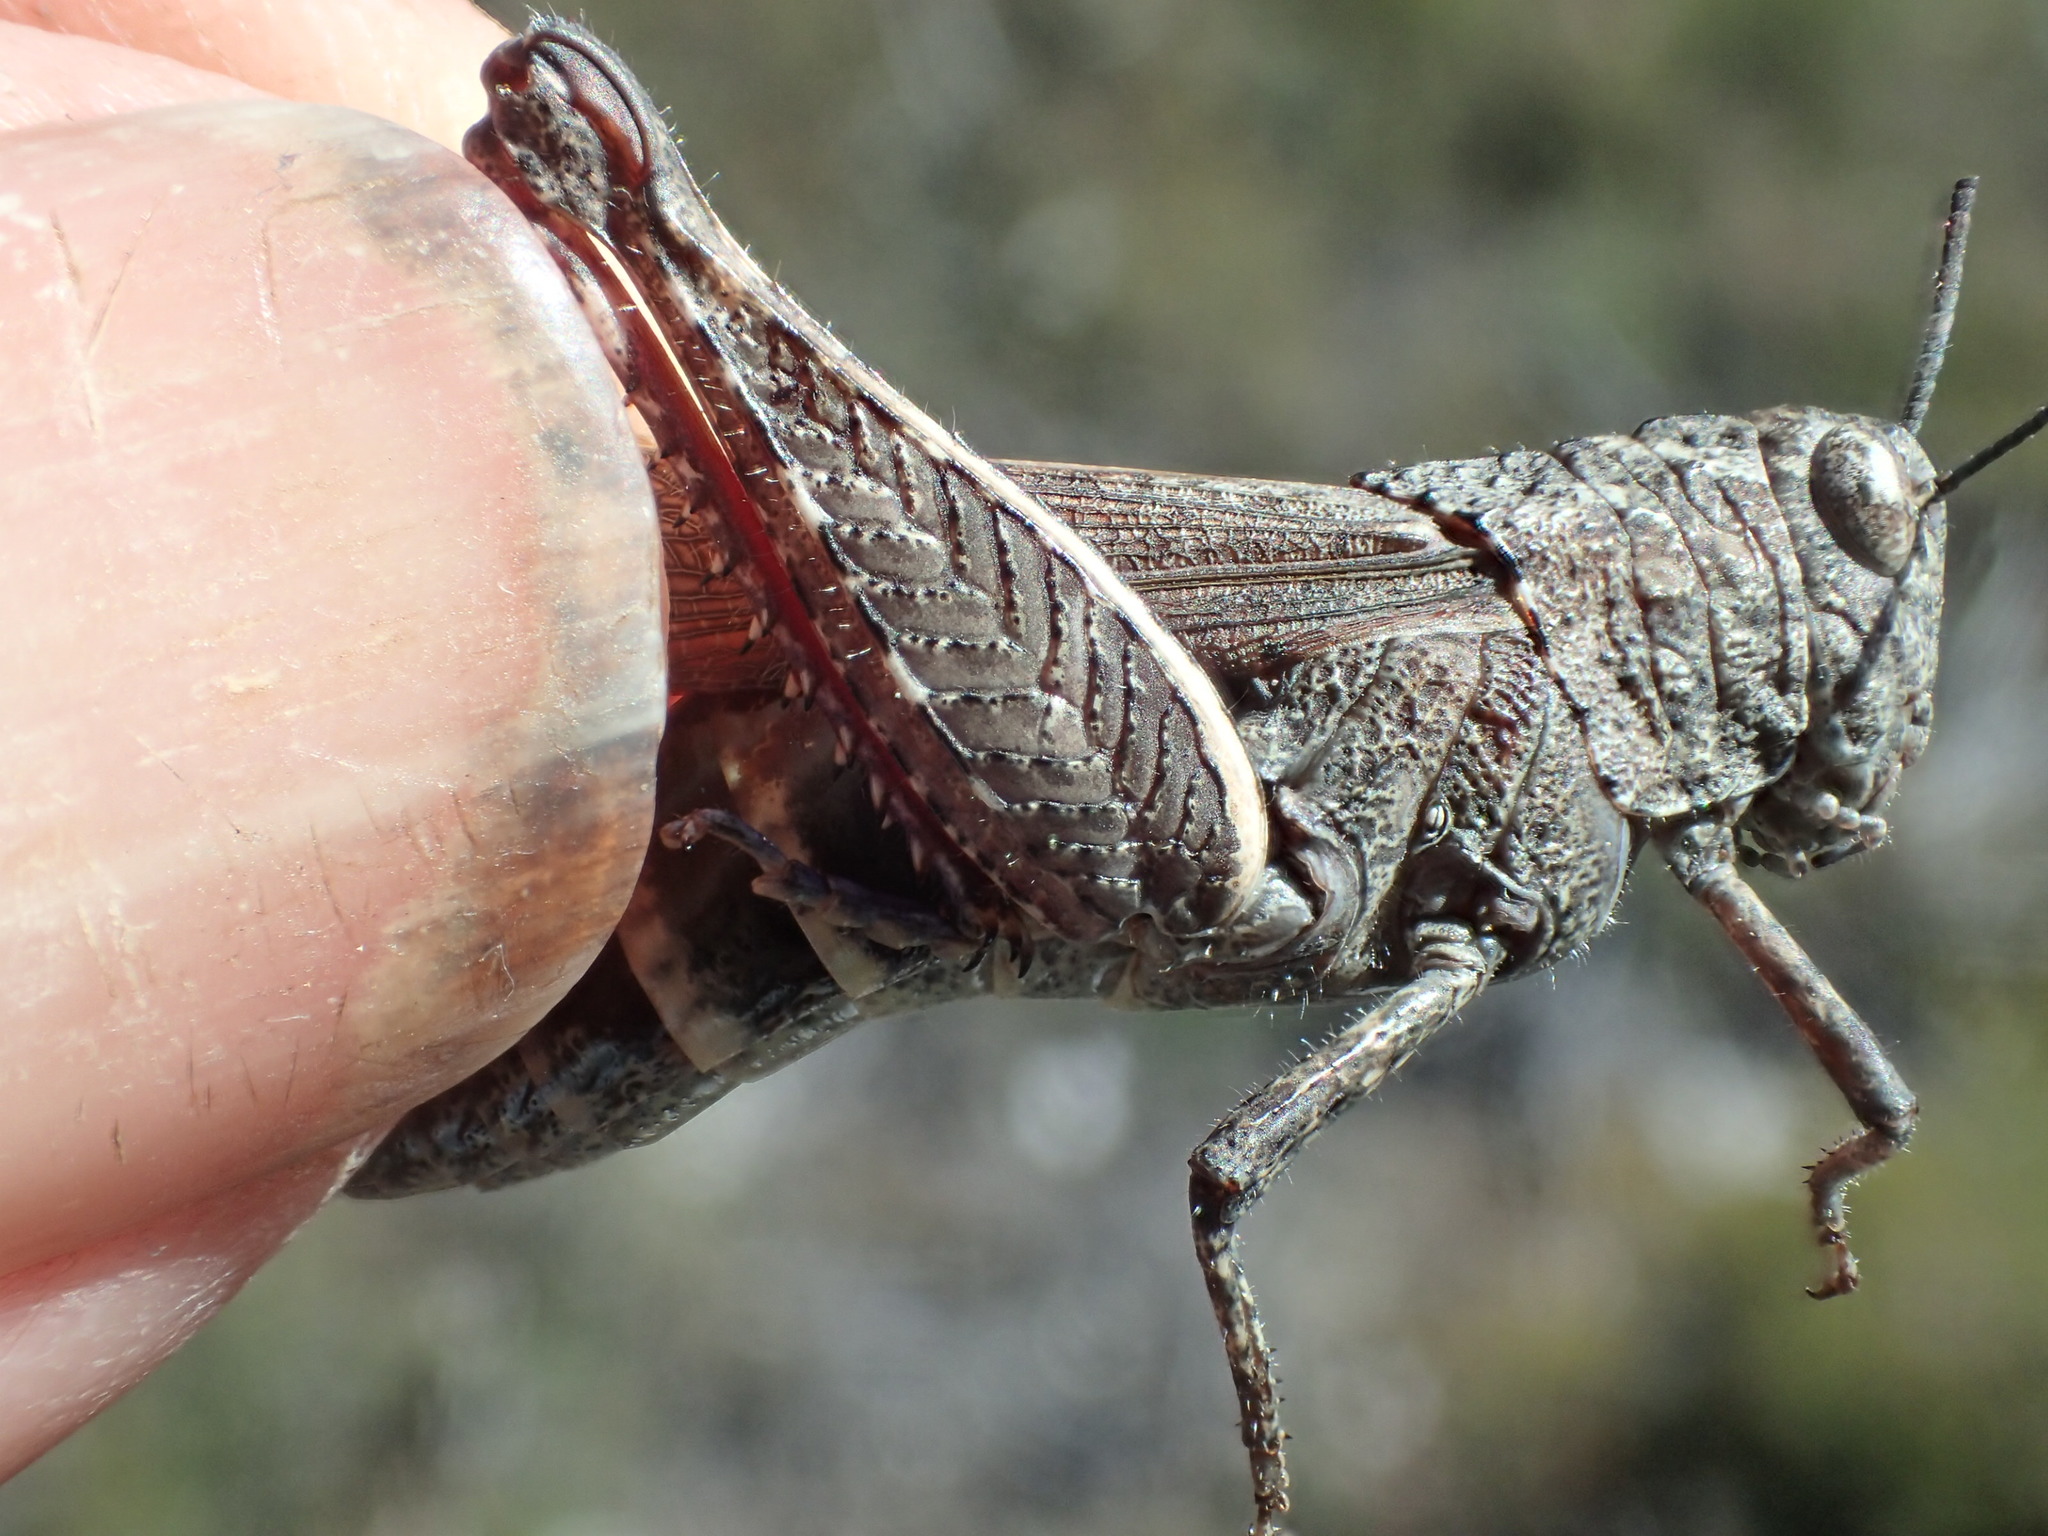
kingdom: Animalia
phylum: Arthropoda
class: Insecta
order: Orthoptera
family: Acrididae
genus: Cirphula
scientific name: Cirphula pyrrhocnemis
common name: Variable cirphula
